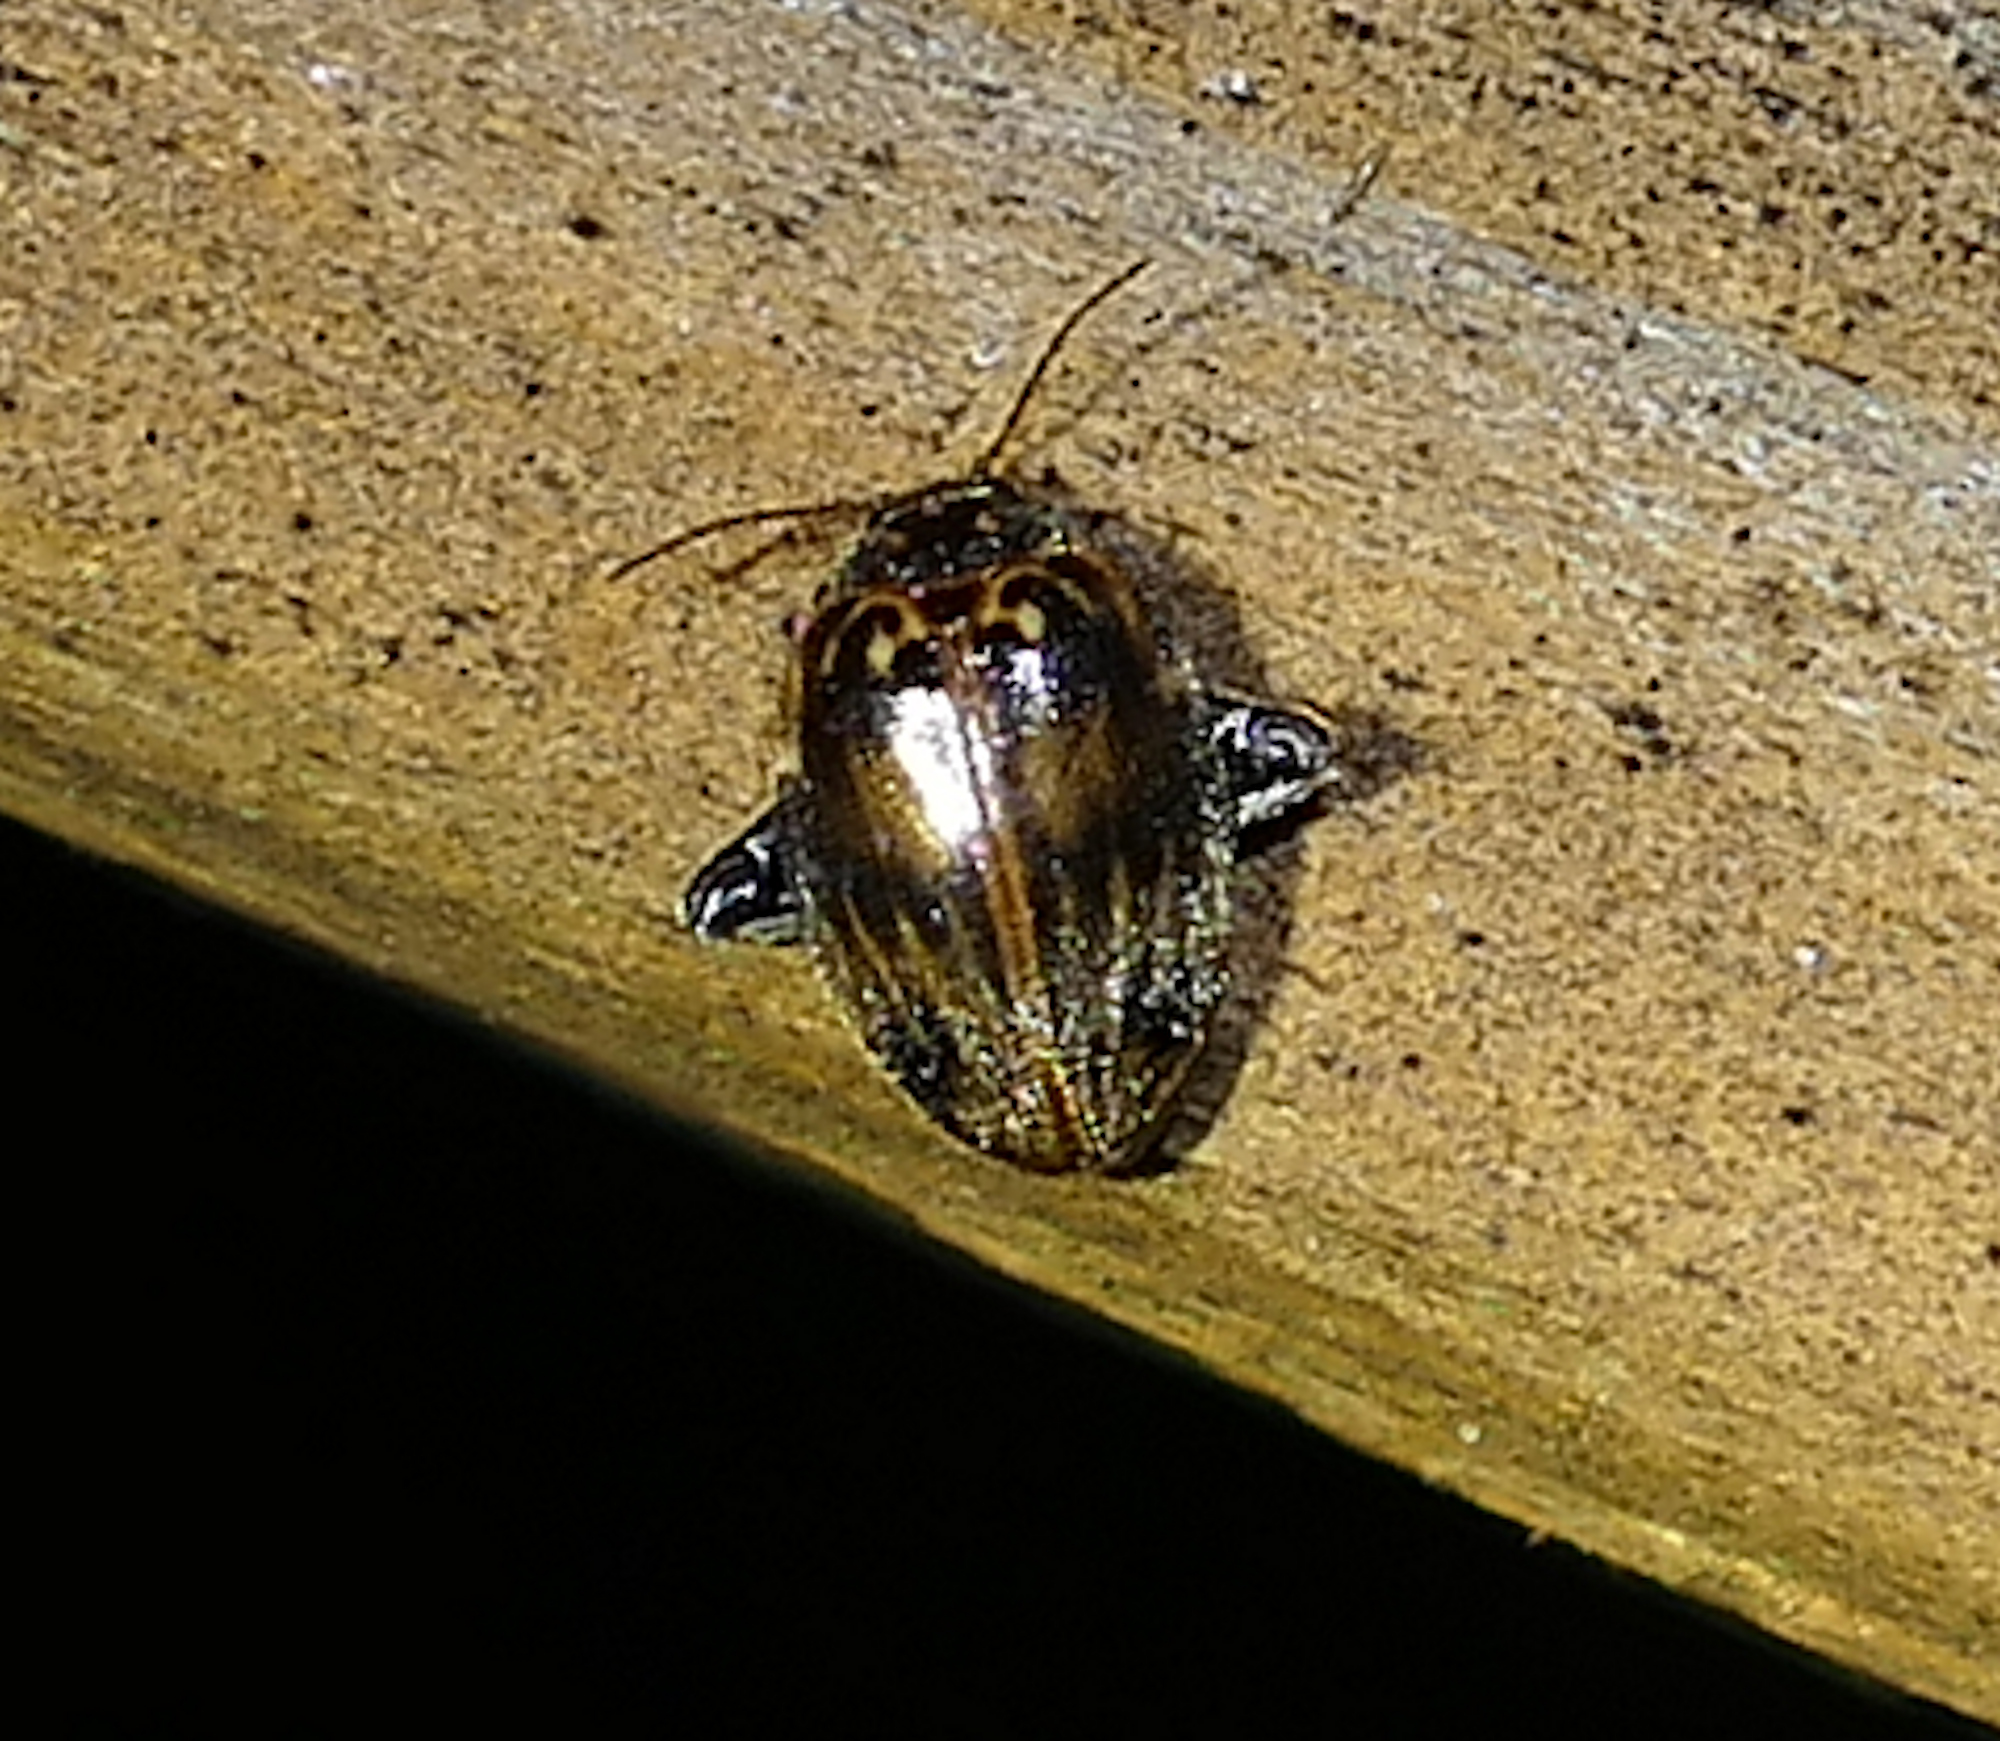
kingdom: Animalia
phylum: Arthropoda
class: Insecta
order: Coleoptera
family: Scirtidae
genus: Ora
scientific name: Ora texana
